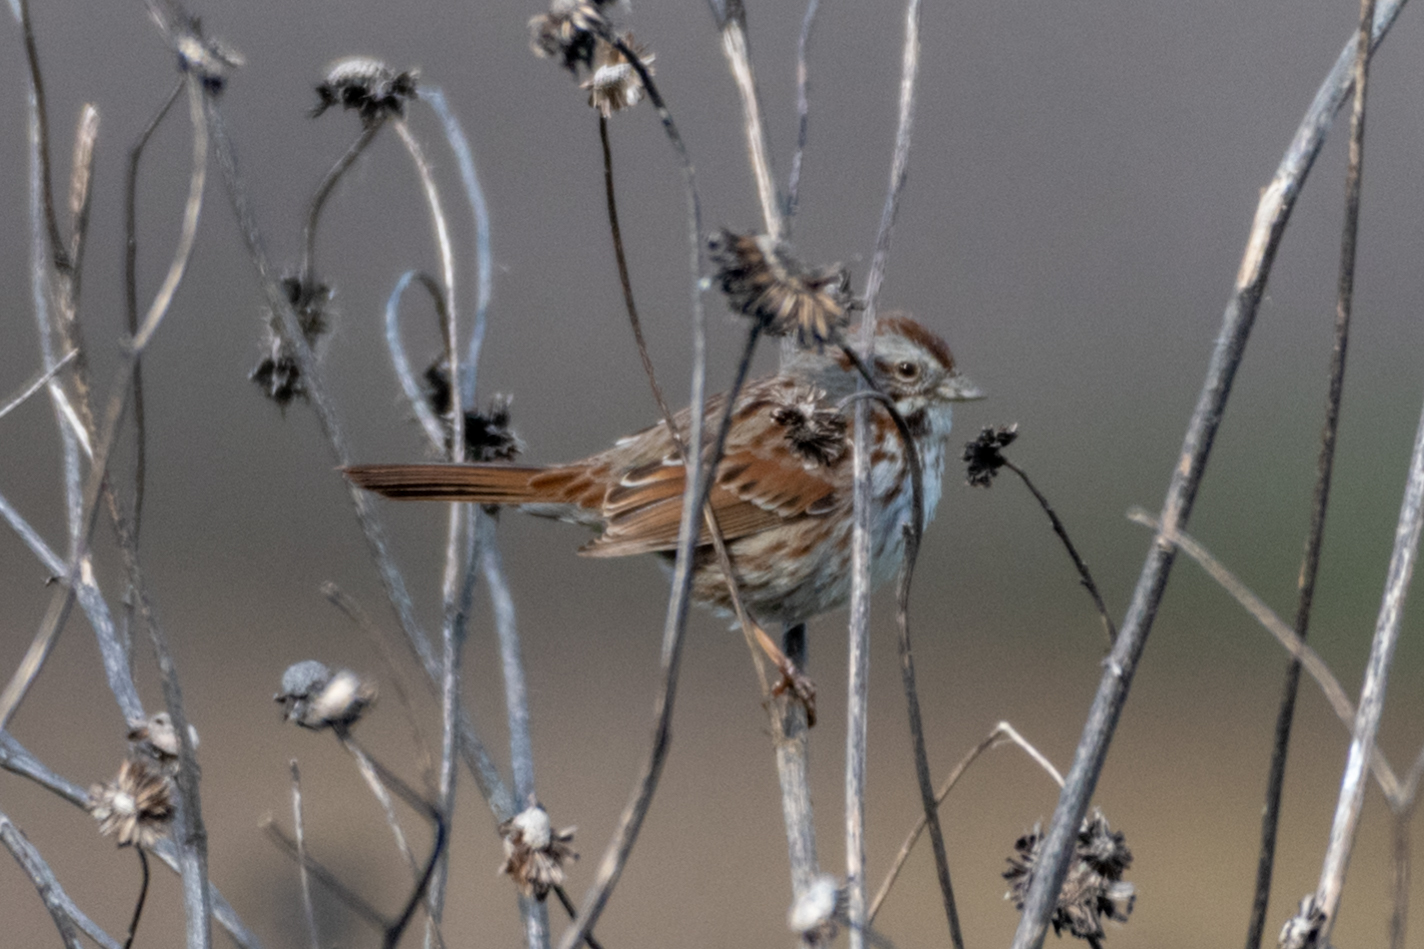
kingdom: Animalia
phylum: Chordata
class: Aves
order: Passeriformes
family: Passerellidae
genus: Melospiza
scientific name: Melospiza melodia
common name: Song sparrow
